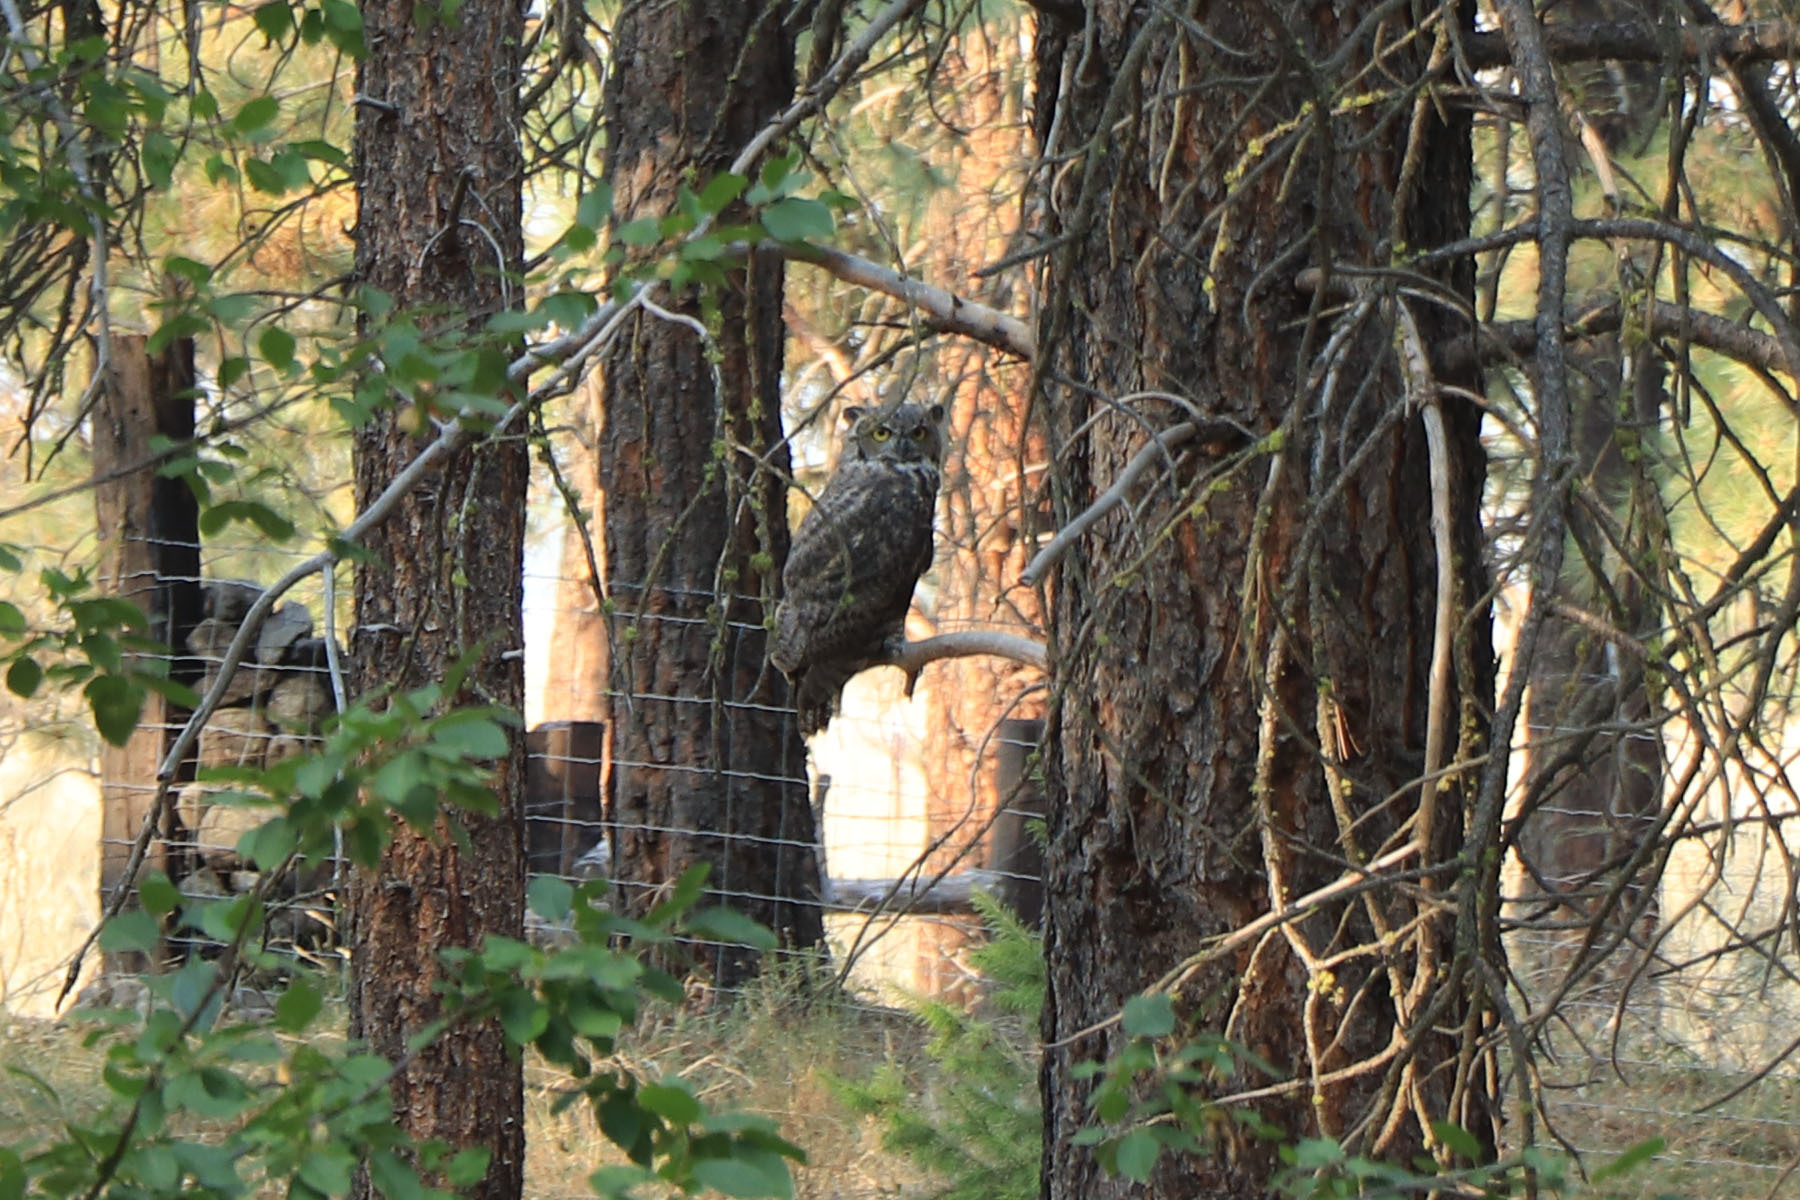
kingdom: Animalia
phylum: Chordata
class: Aves
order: Strigiformes
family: Strigidae
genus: Bubo
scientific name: Bubo virginianus
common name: Great horned owl
